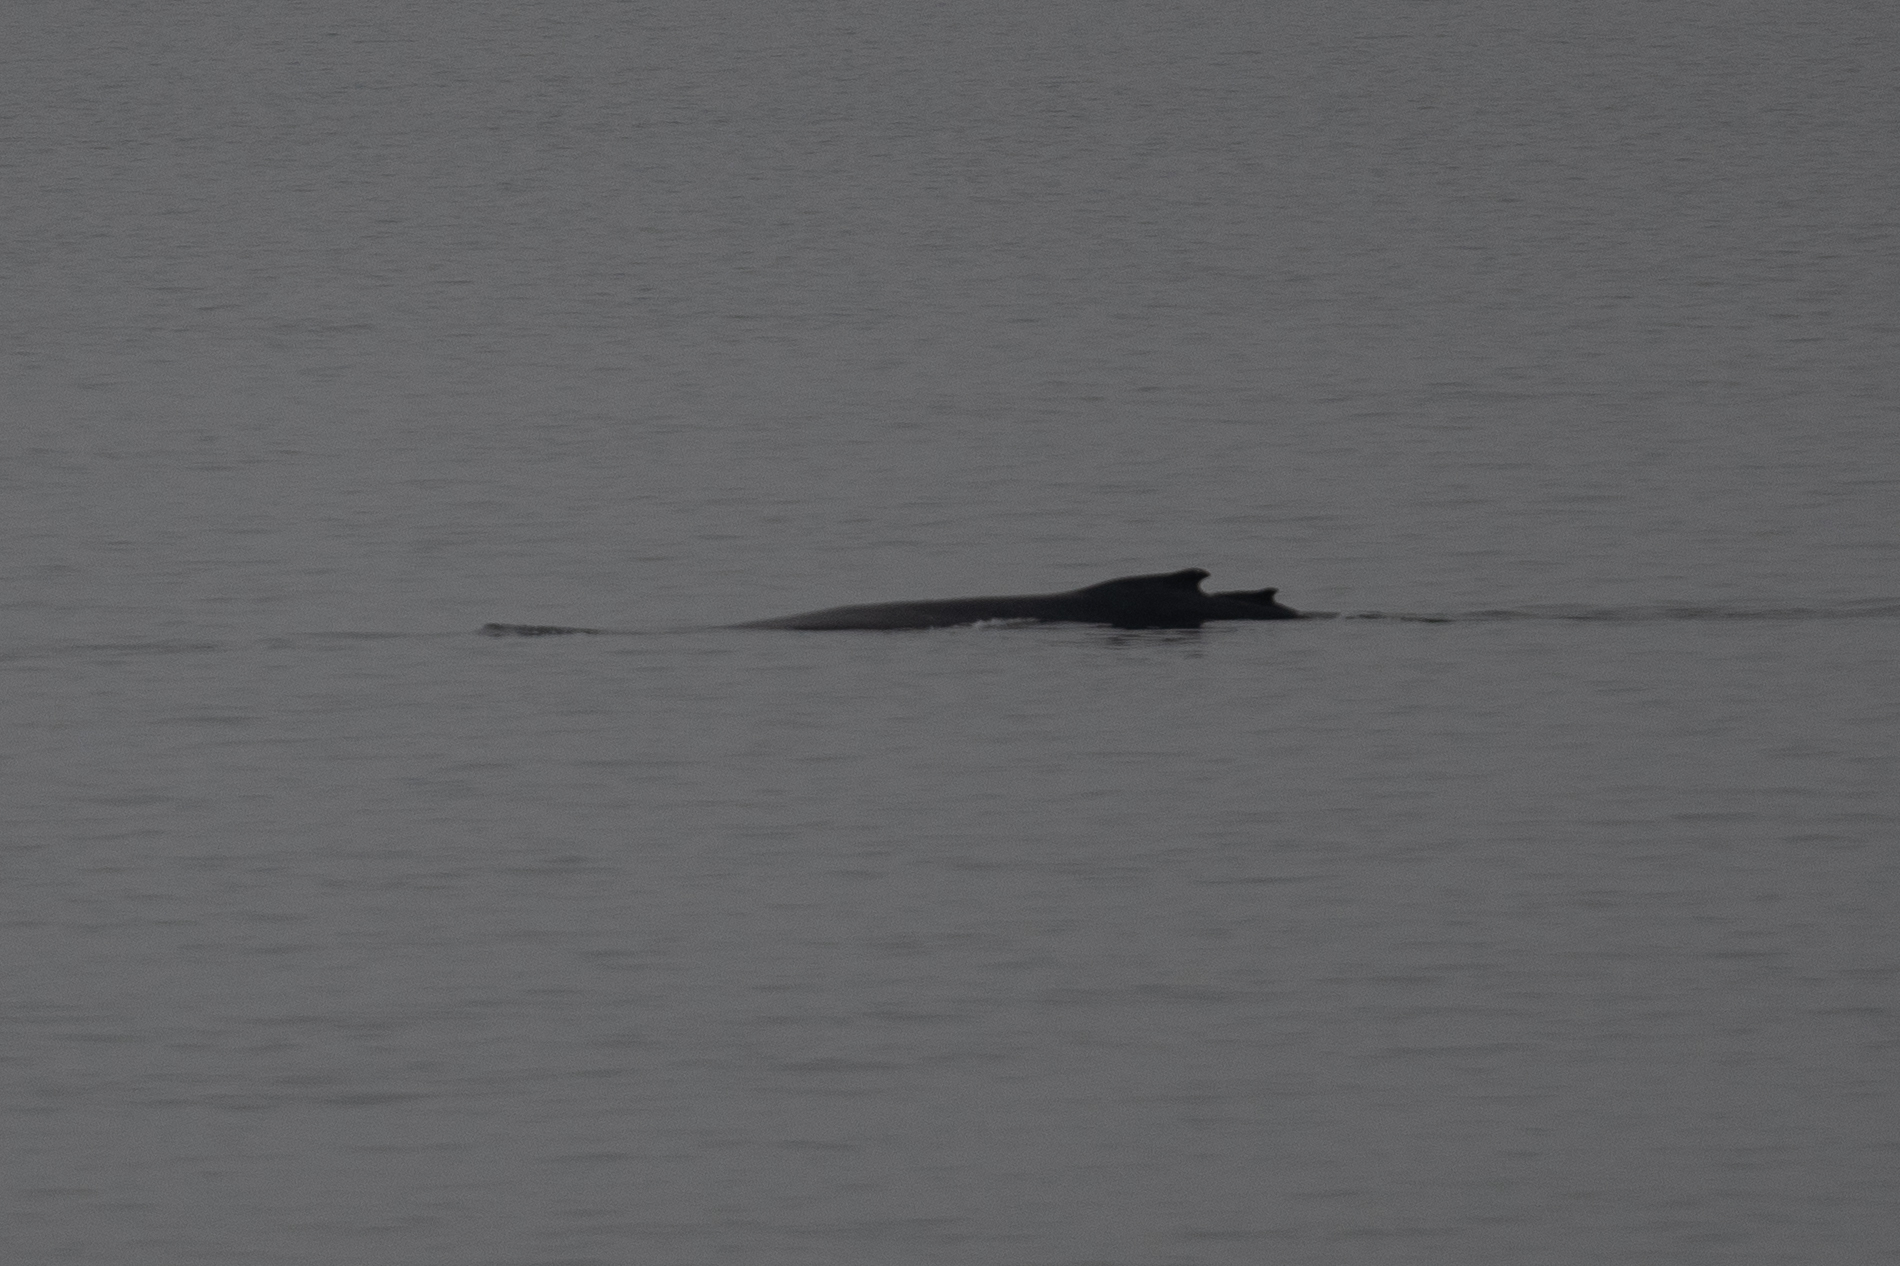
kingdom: Animalia
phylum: Chordata
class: Mammalia
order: Cetacea
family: Balaenopteridae
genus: Megaptera
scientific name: Megaptera novaeangliae
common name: Humpback whale
